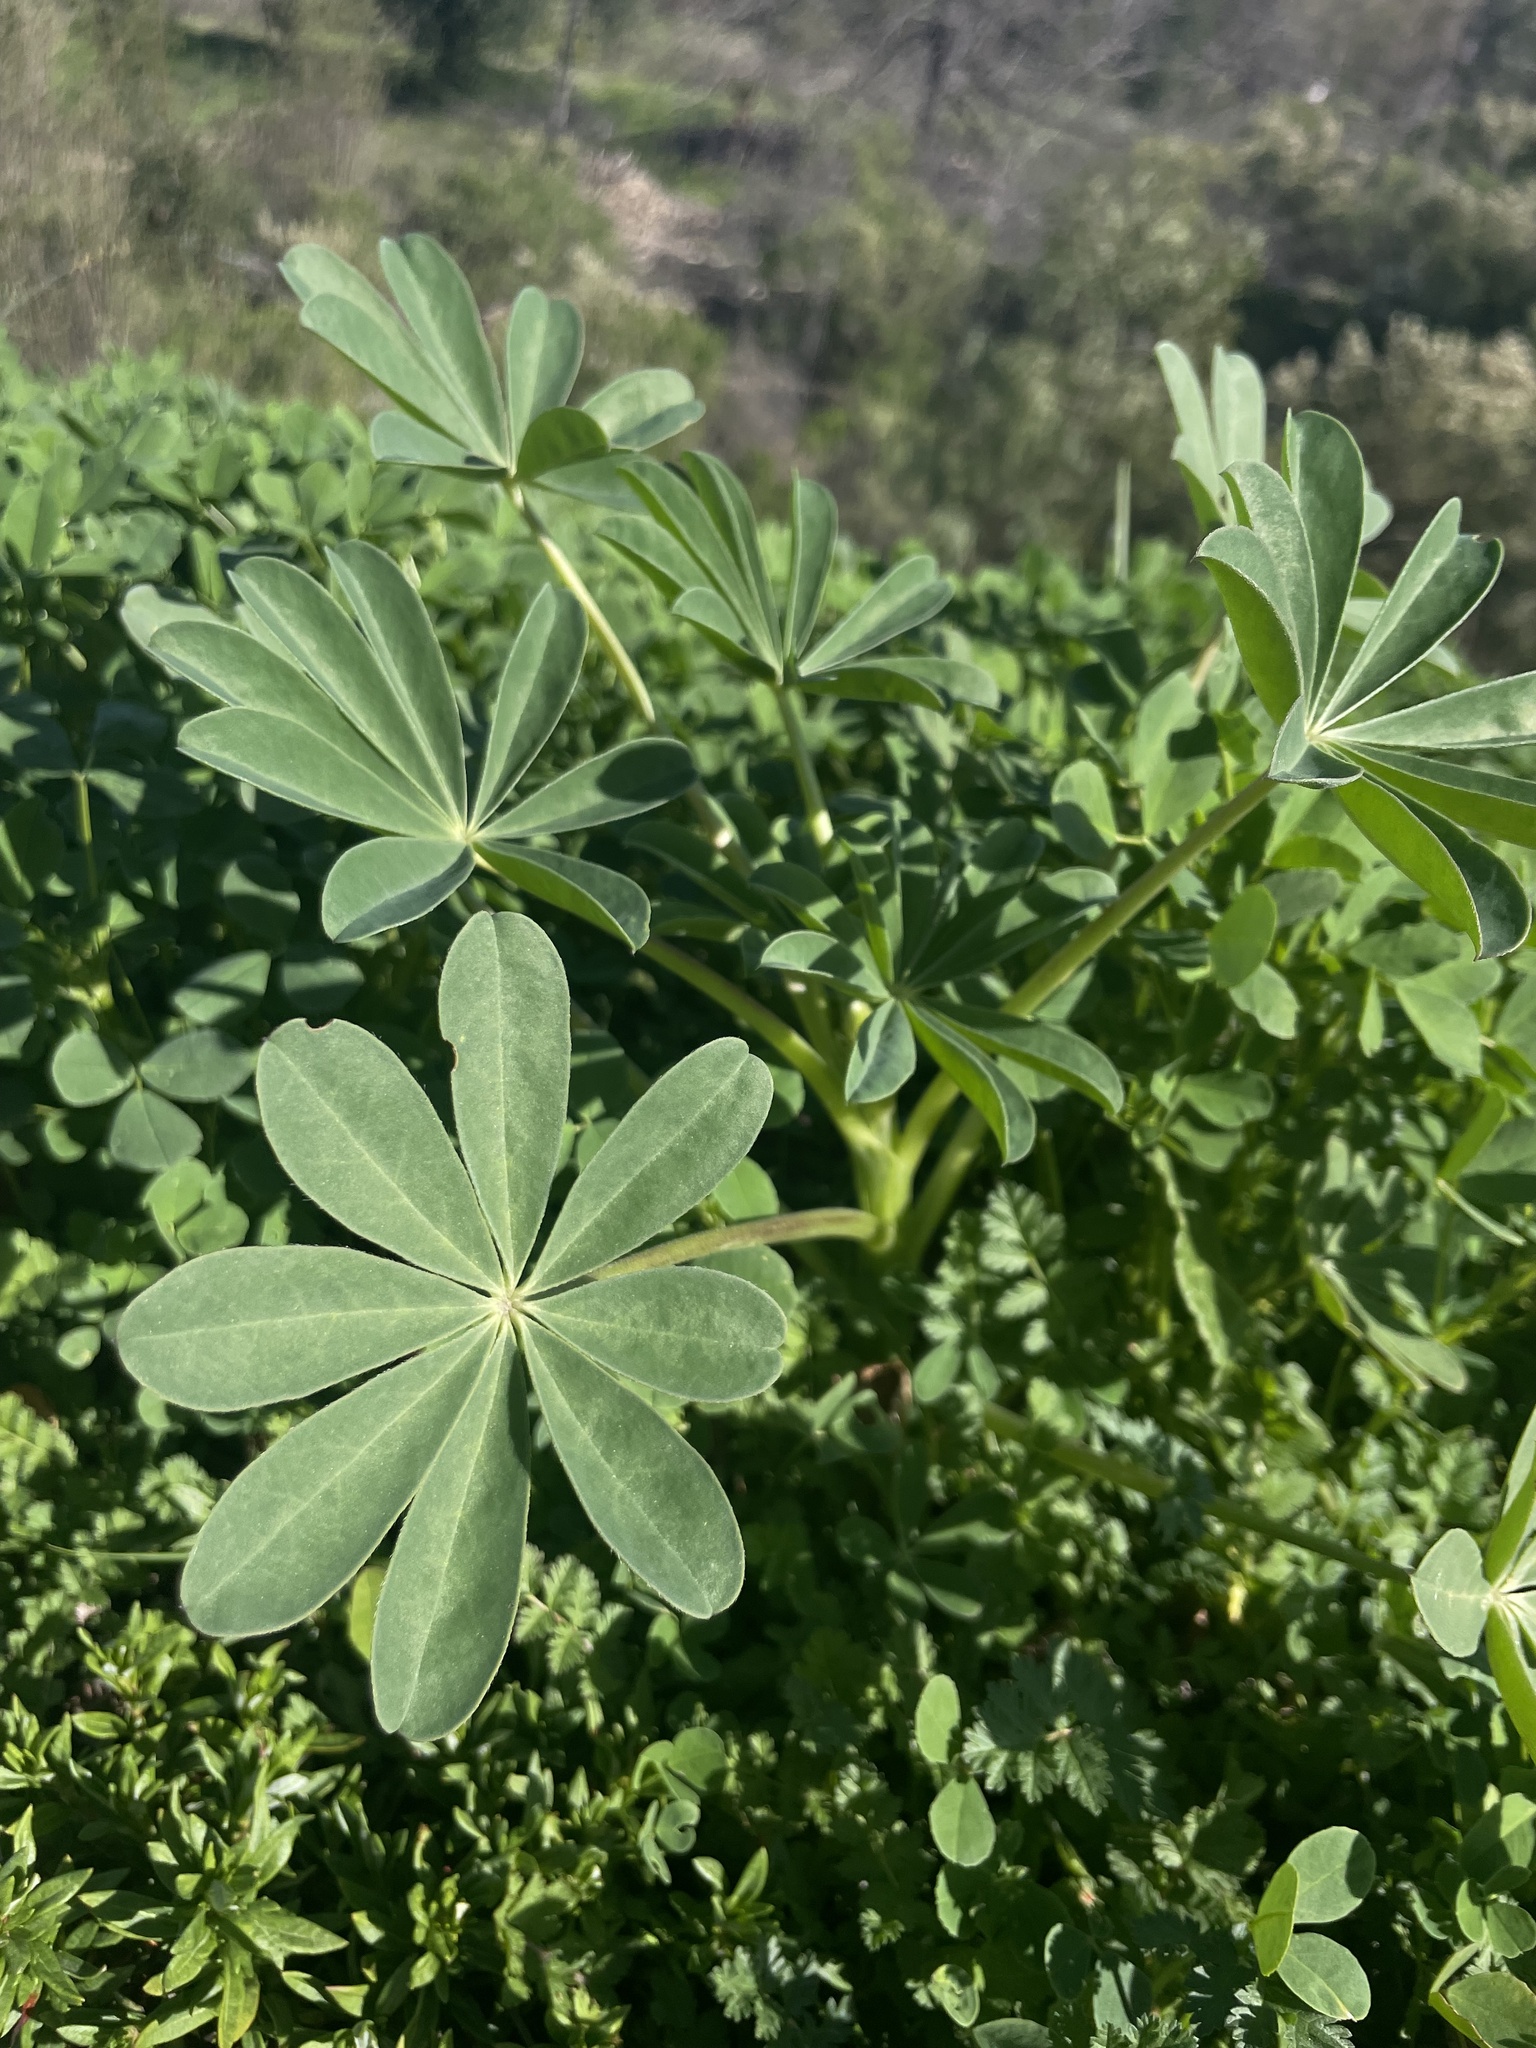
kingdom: Plantae
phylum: Tracheophyta
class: Magnoliopsida
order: Fabales
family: Fabaceae
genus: Lupinus
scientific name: Lupinus succulentus
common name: Arroyo lupine
